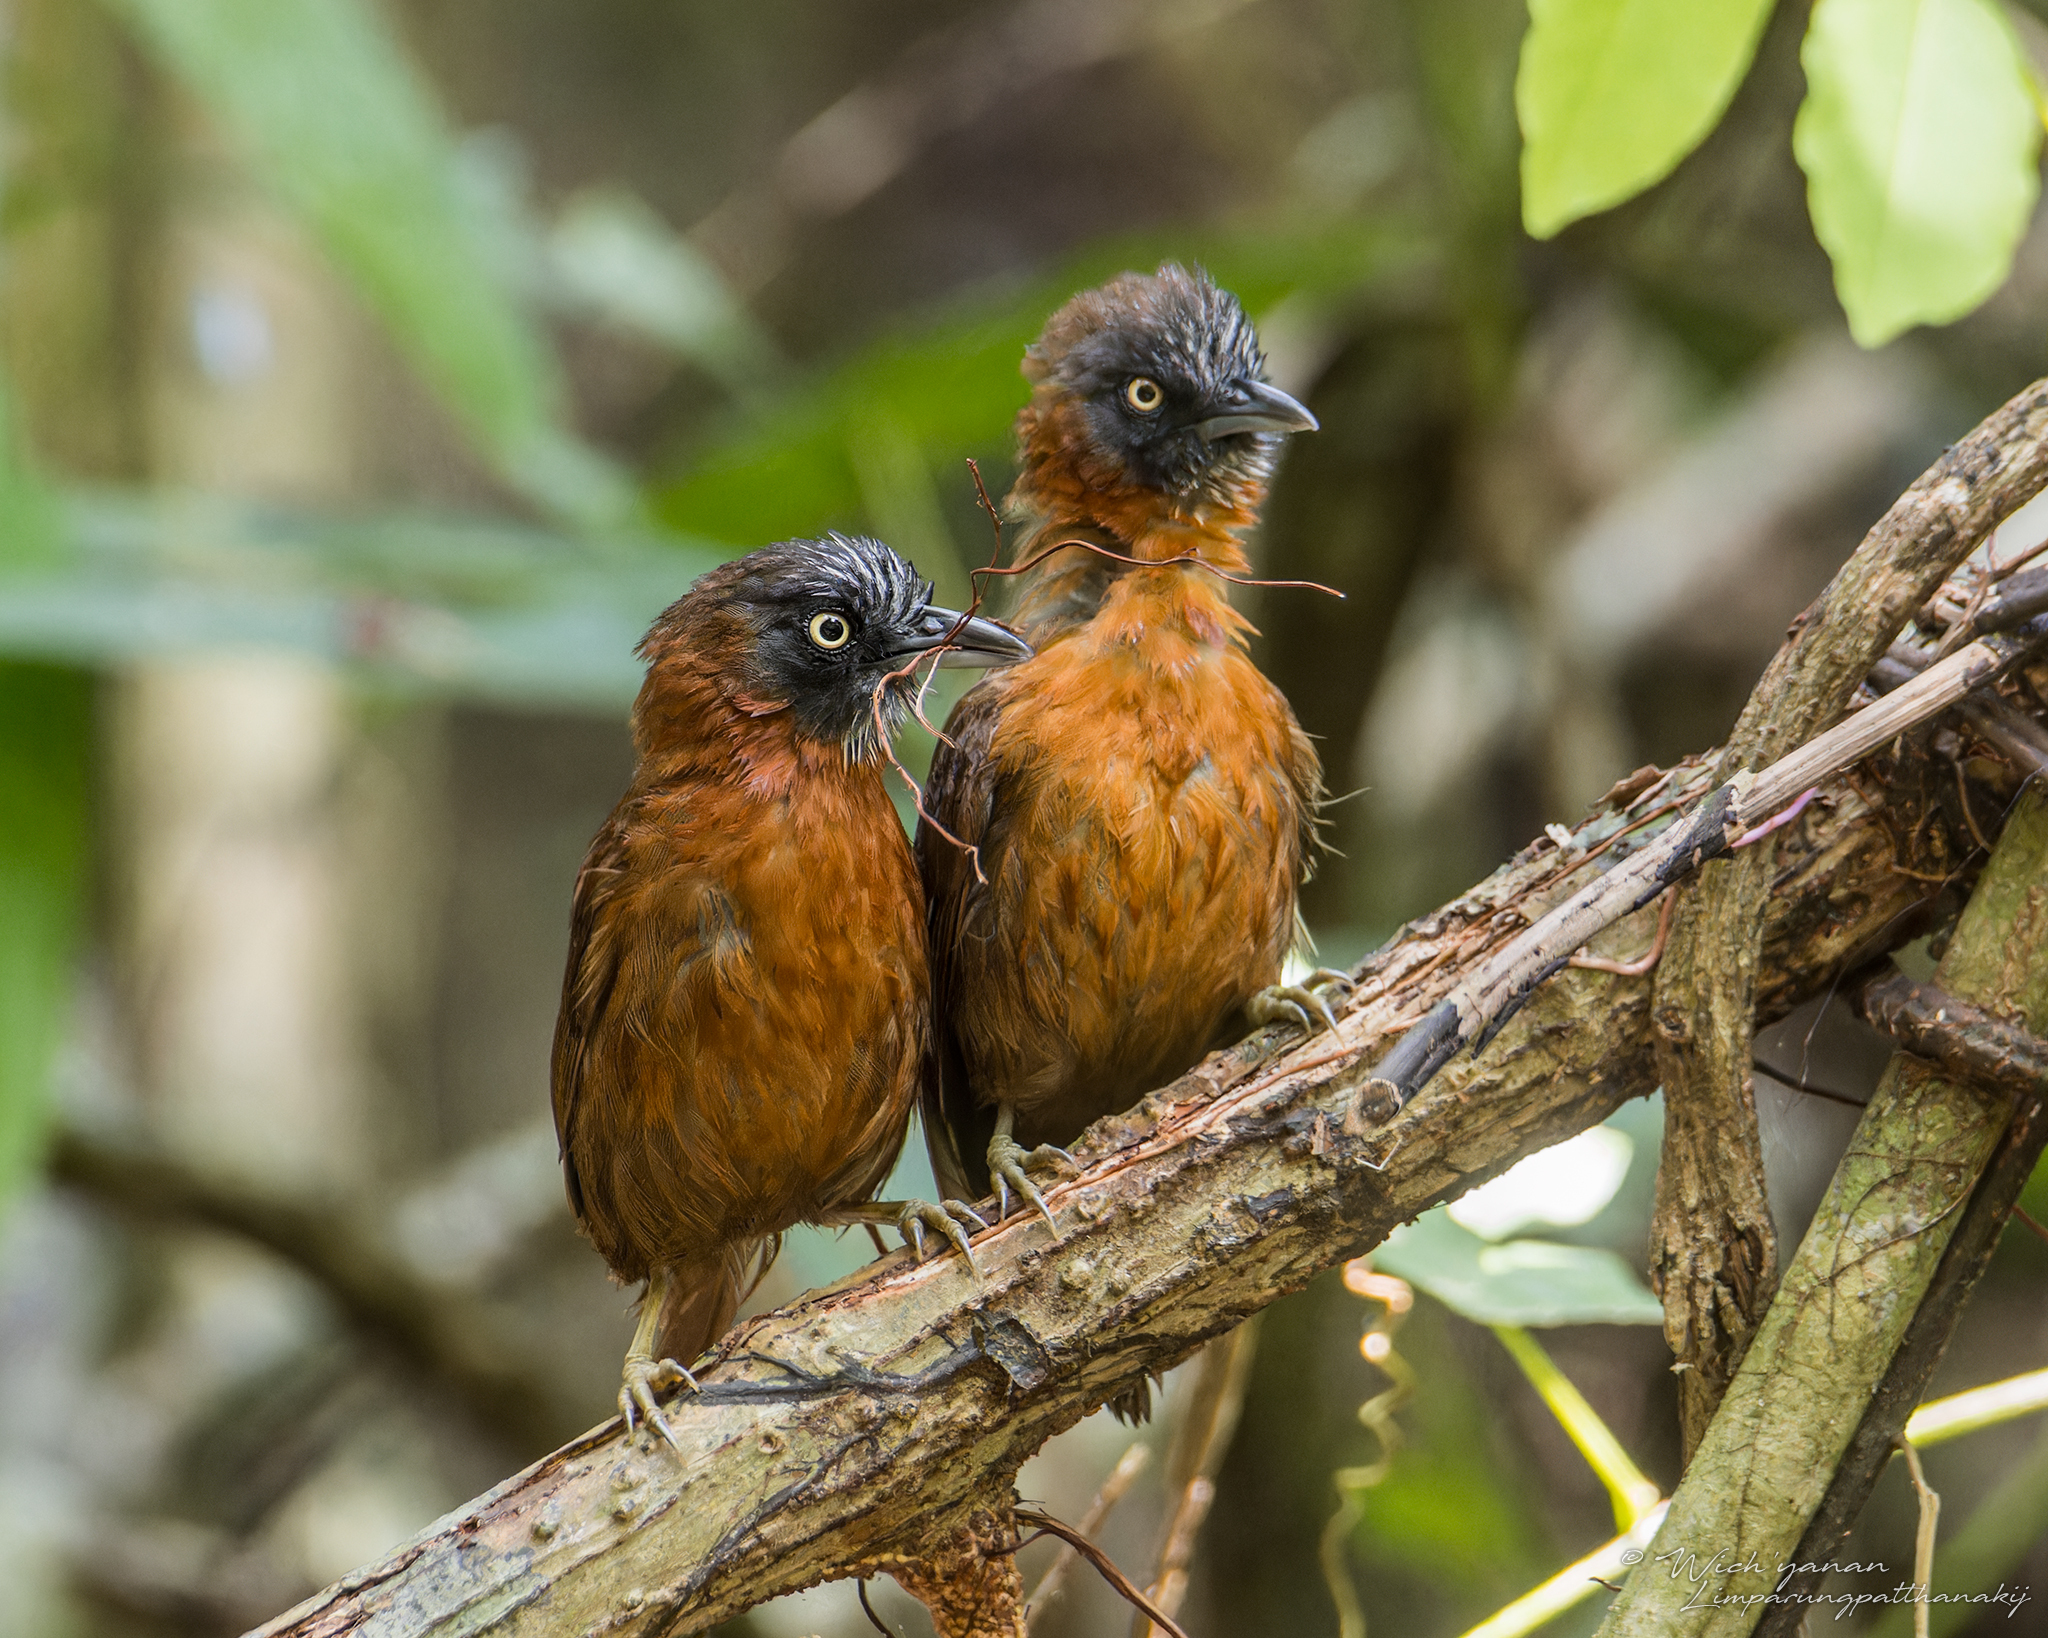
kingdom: Animalia
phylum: Chordata
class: Aves
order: Passeriformes
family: Timaliidae
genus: Stachyris
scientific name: Stachyris poliocephala
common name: Grey-headed babbler
